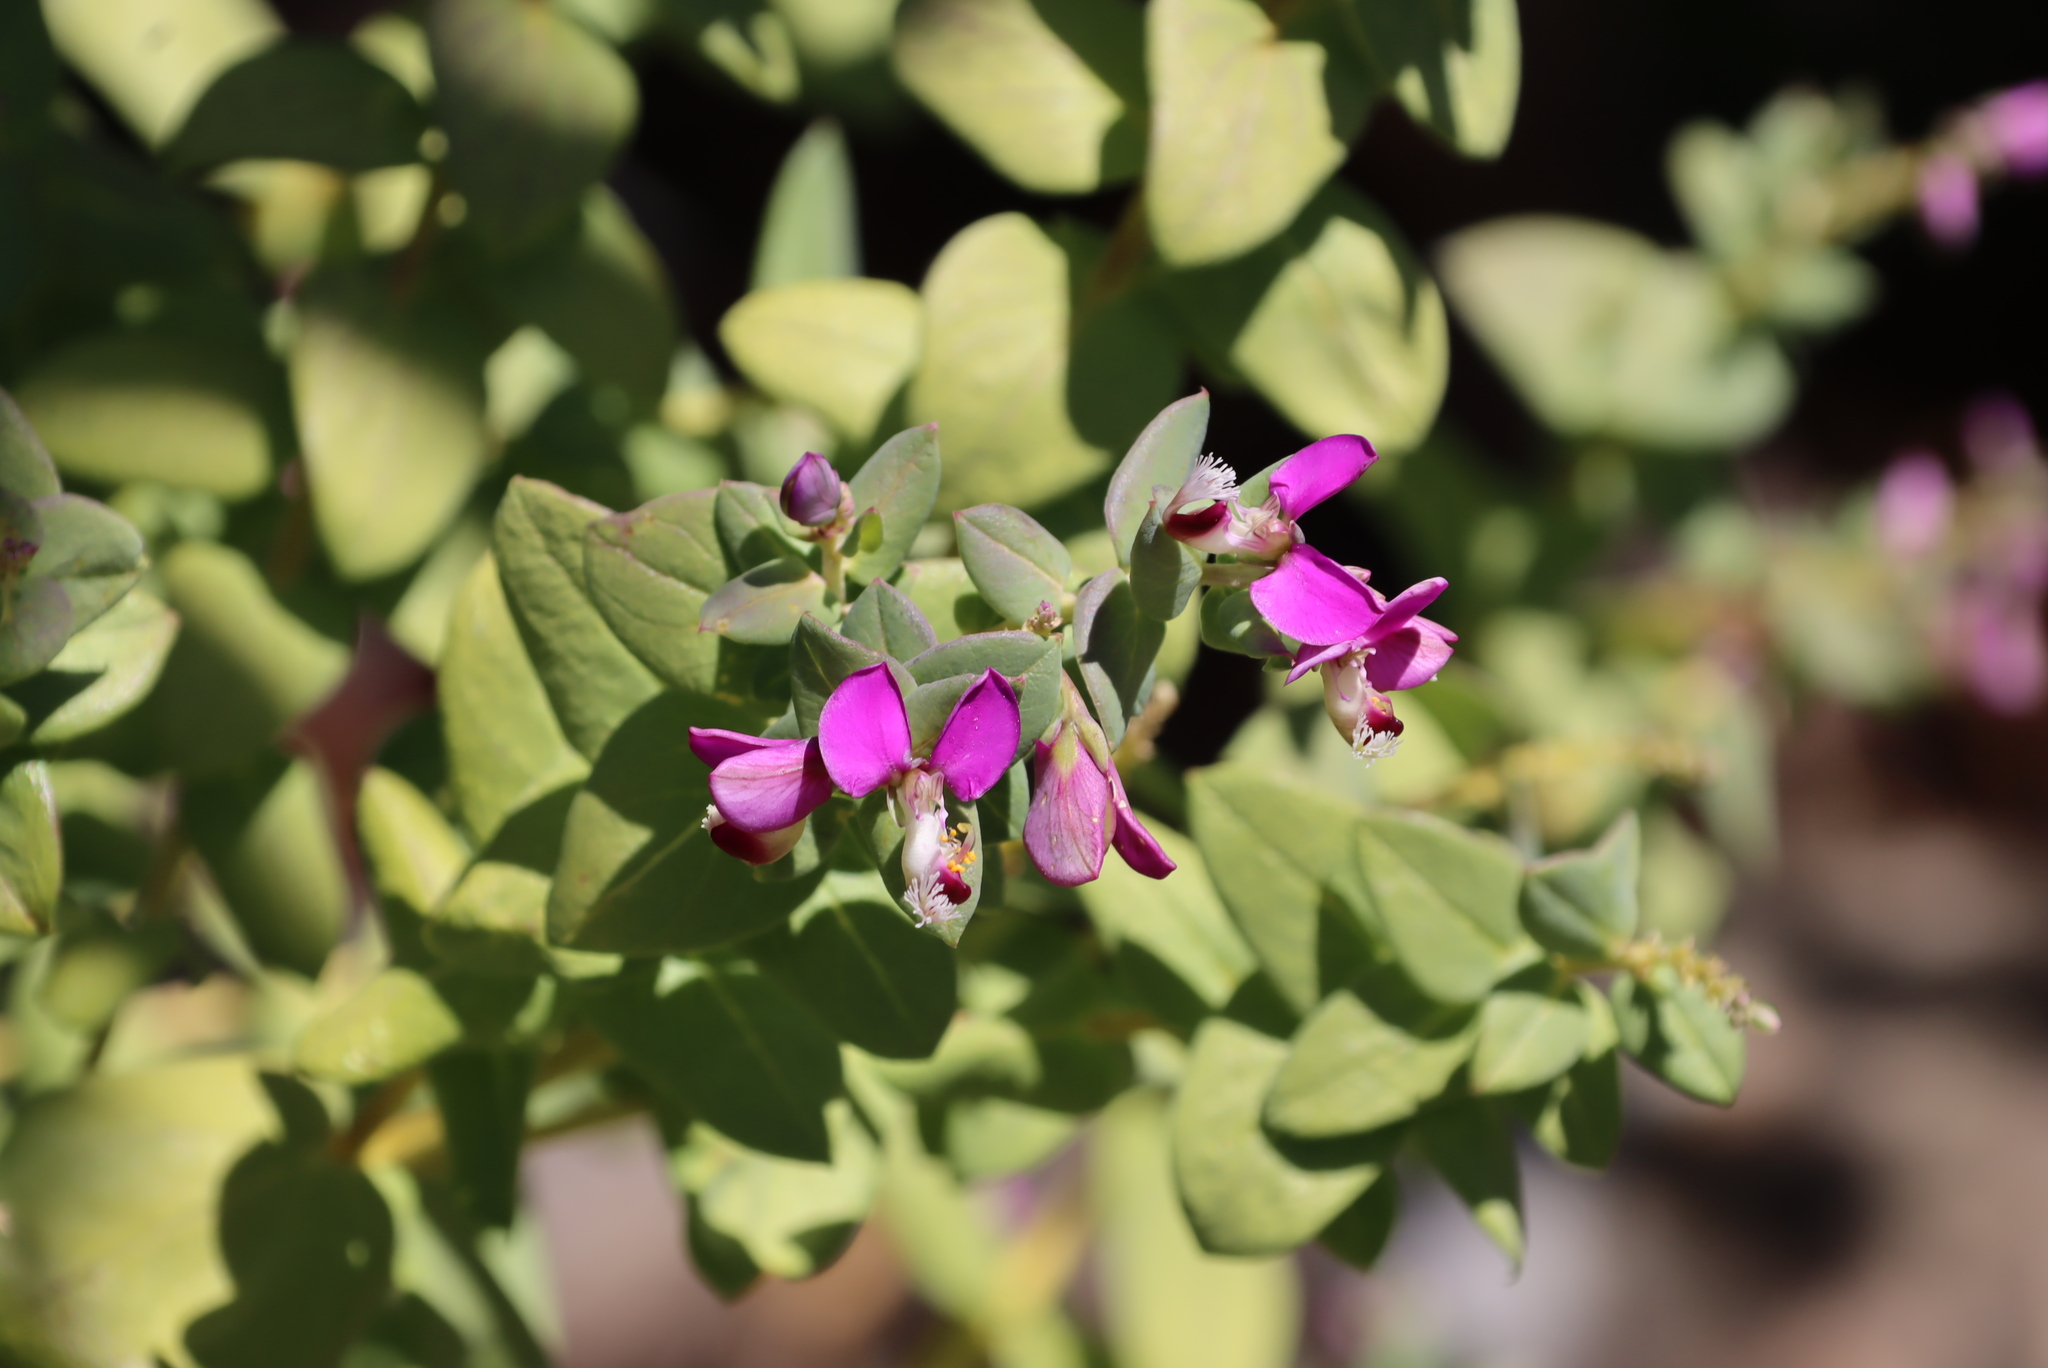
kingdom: Plantae
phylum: Tracheophyta
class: Magnoliopsida
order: Fabales
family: Polygalaceae
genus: Polygala
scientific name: Polygala fruticosa
